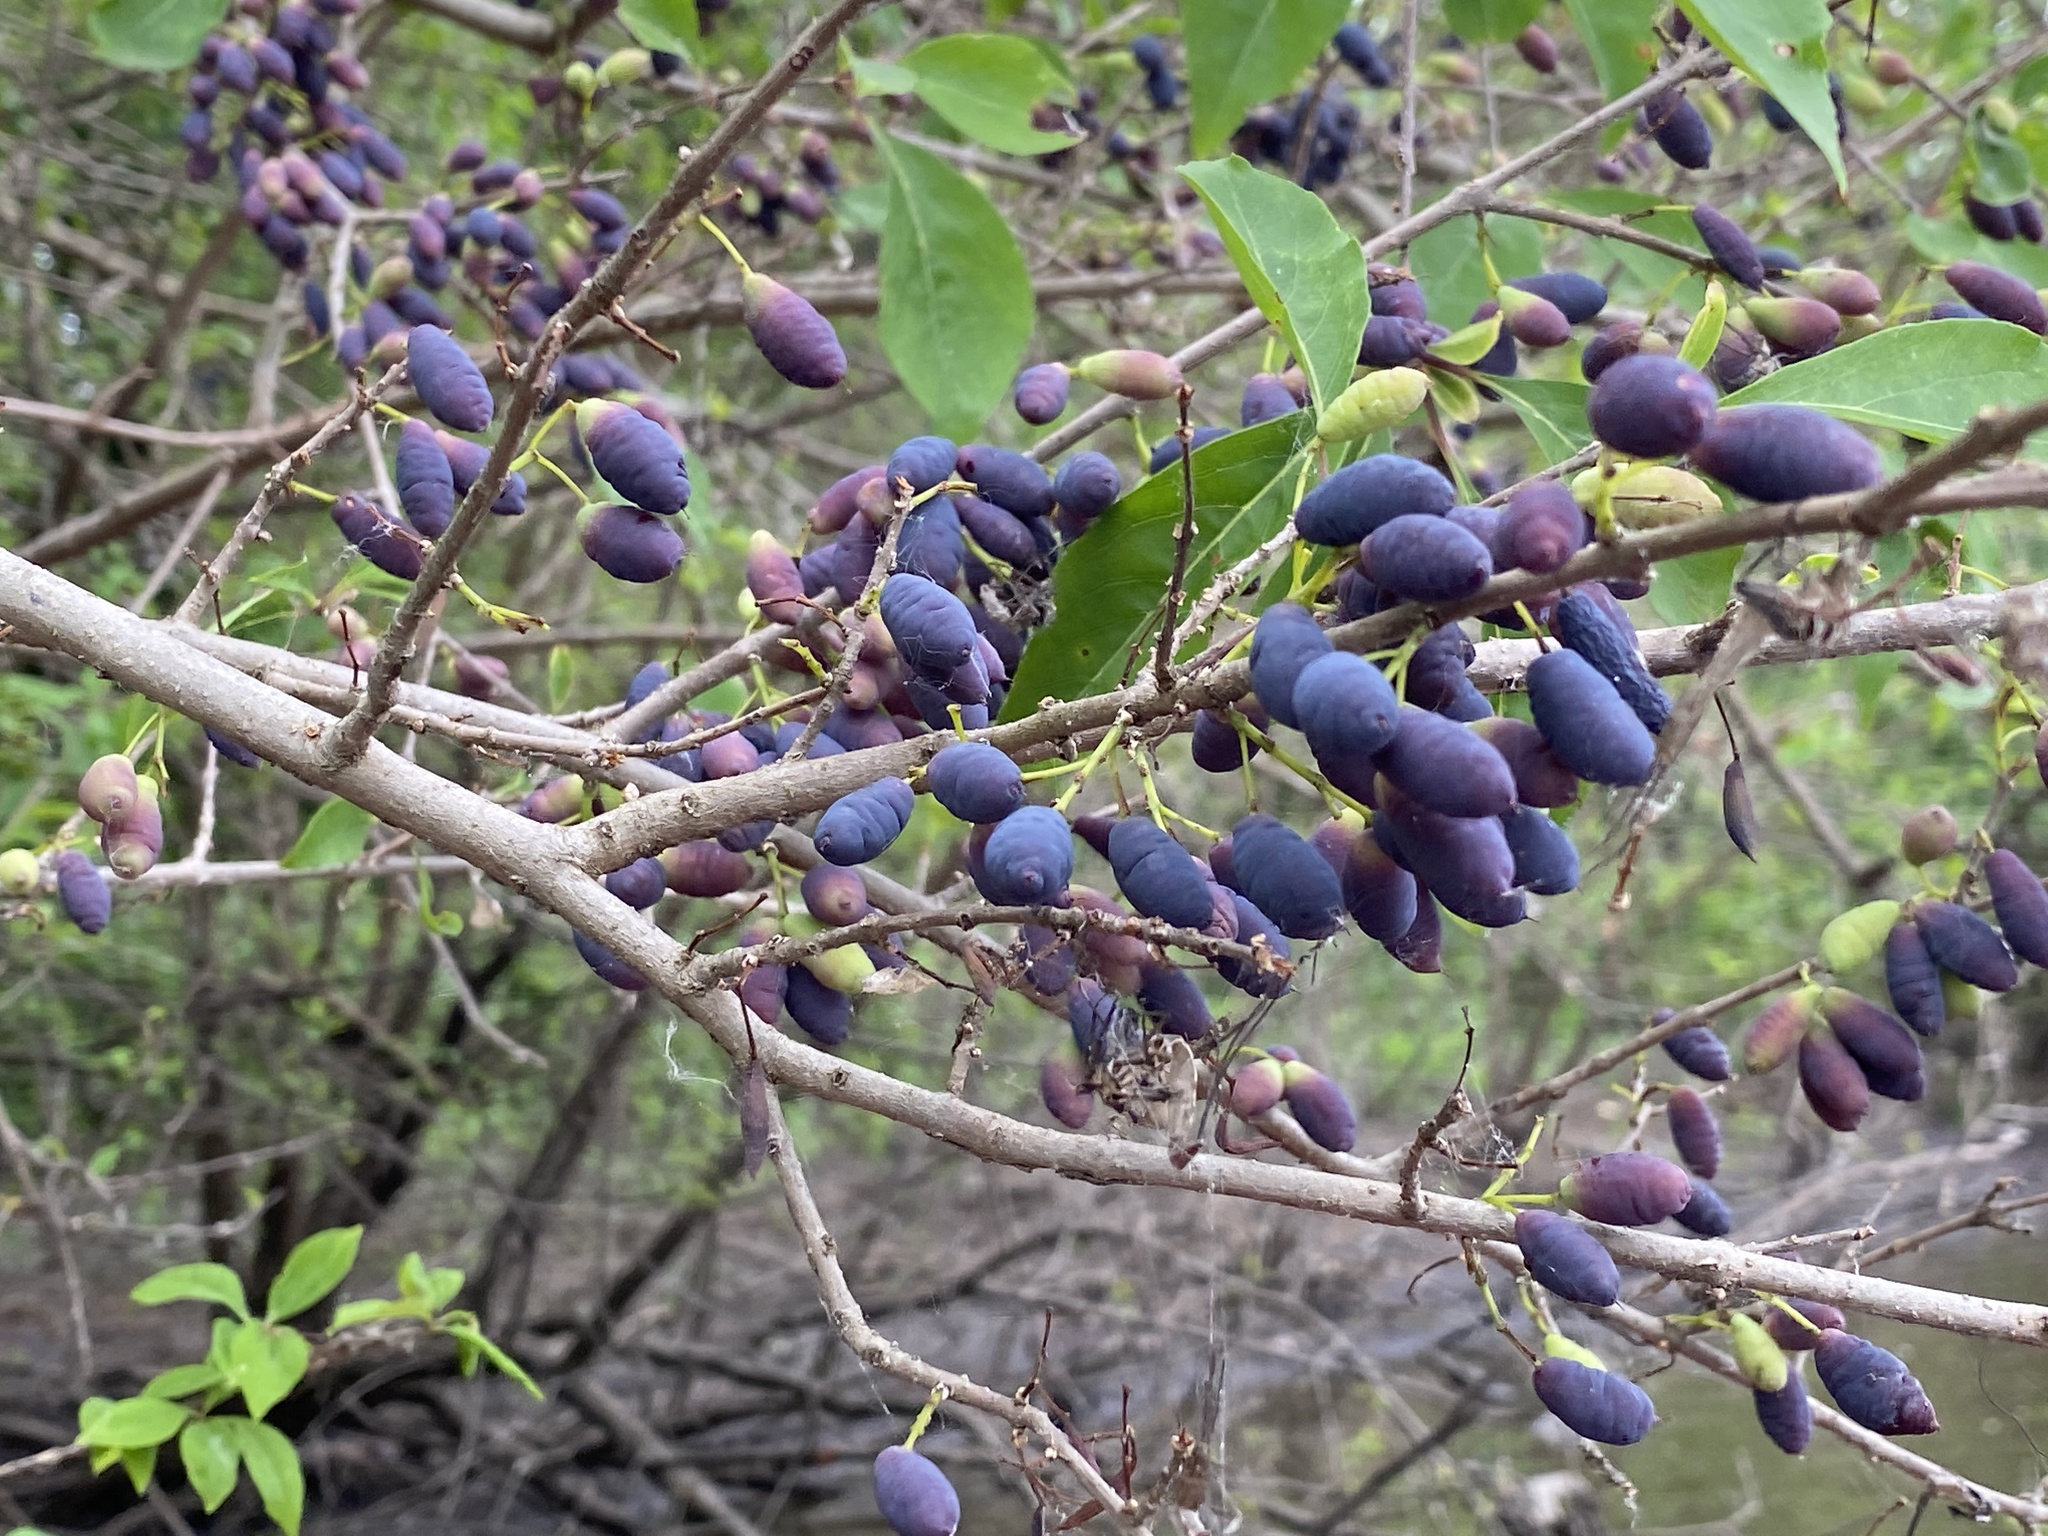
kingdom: Plantae
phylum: Tracheophyta
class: Magnoliopsida
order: Lamiales
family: Oleaceae
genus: Forestiera
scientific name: Forestiera acuminata
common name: Swamp-privet
